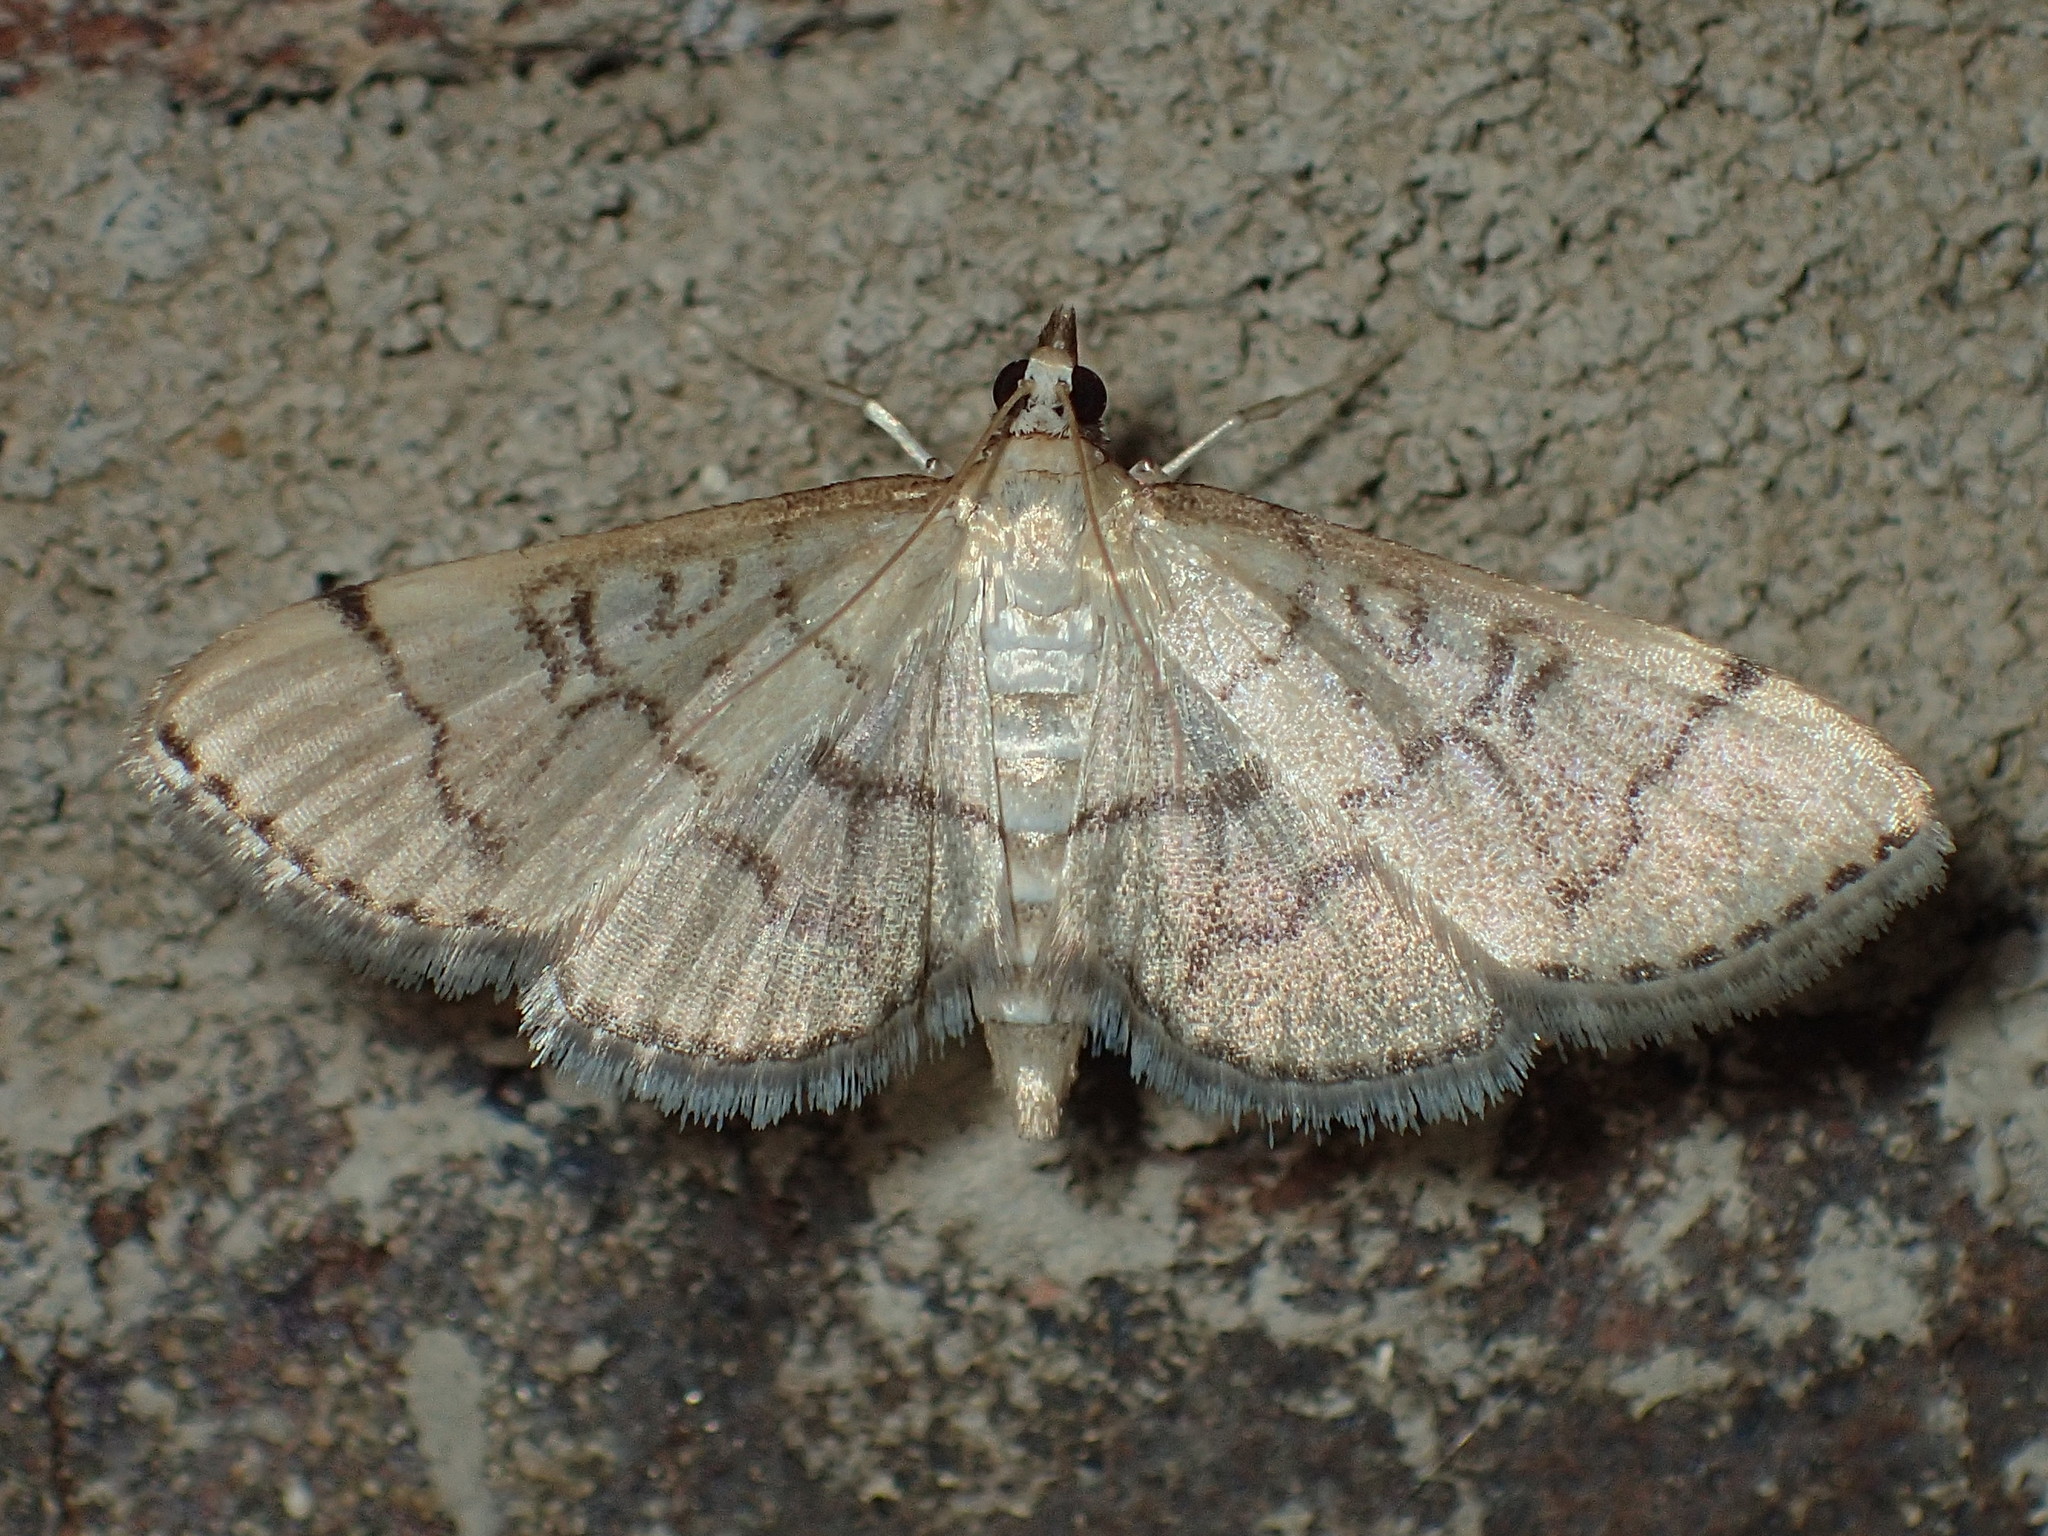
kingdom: Animalia
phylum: Arthropoda
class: Insecta
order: Lepidoptera
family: Crambidae
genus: Lamprosema
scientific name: Lamprosema Blepharomastix ranalis
